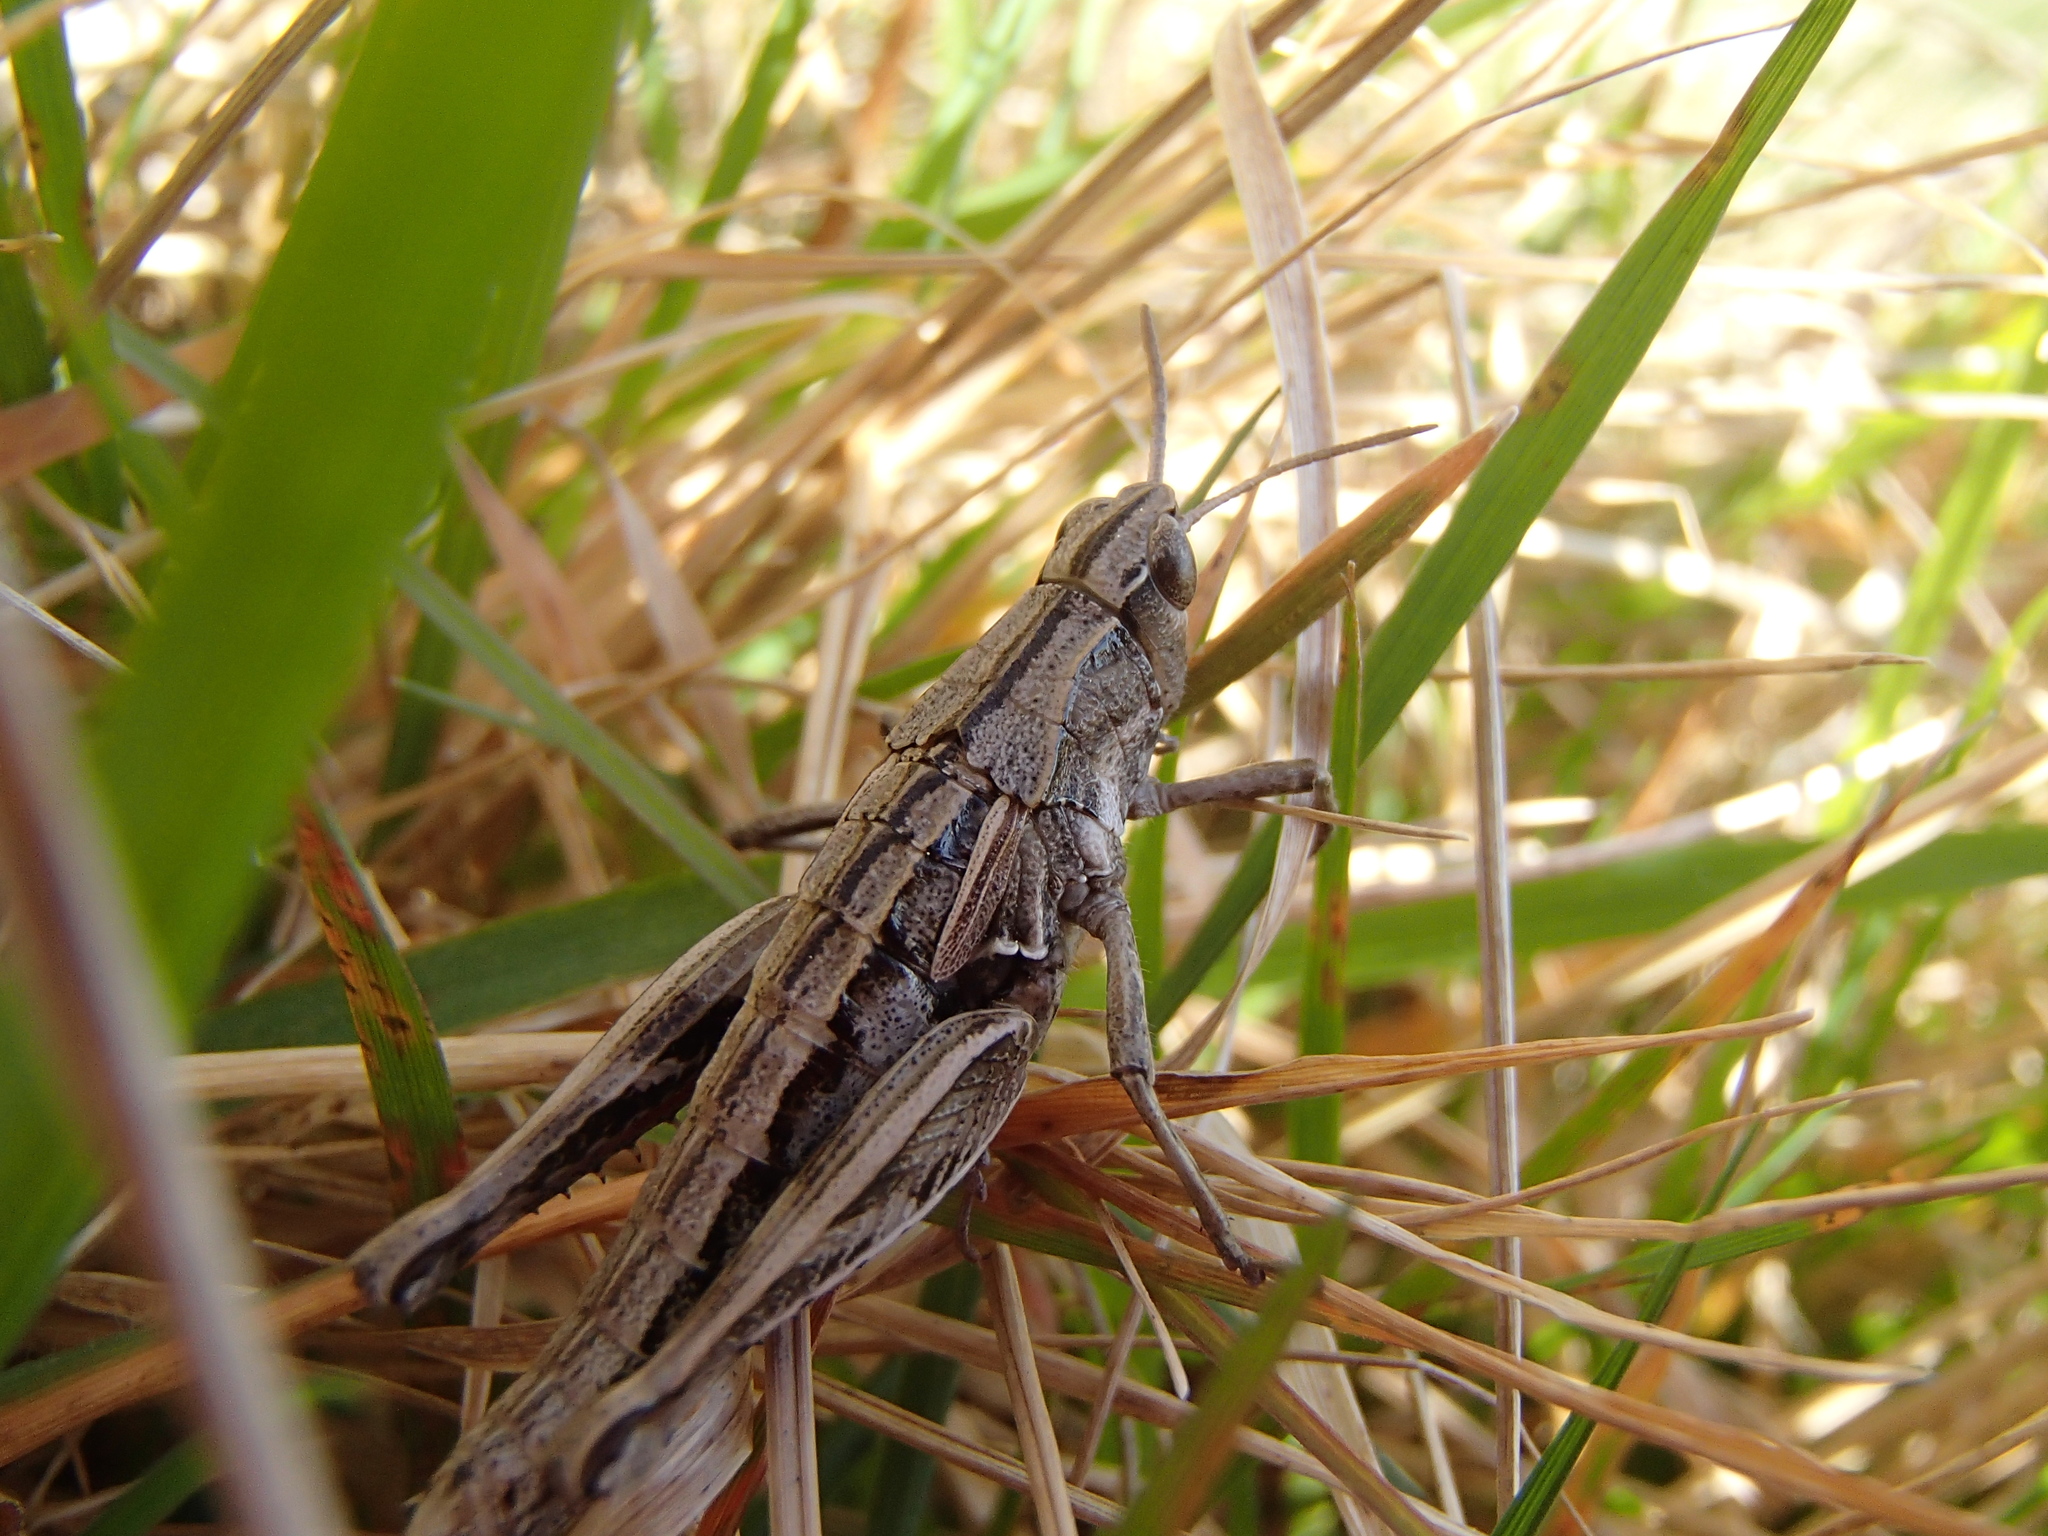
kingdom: Animalia
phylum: Arthropoda
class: Insecta
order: Orthoptera
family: Acrididae
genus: Sigaus
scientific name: Sigaus campestris
